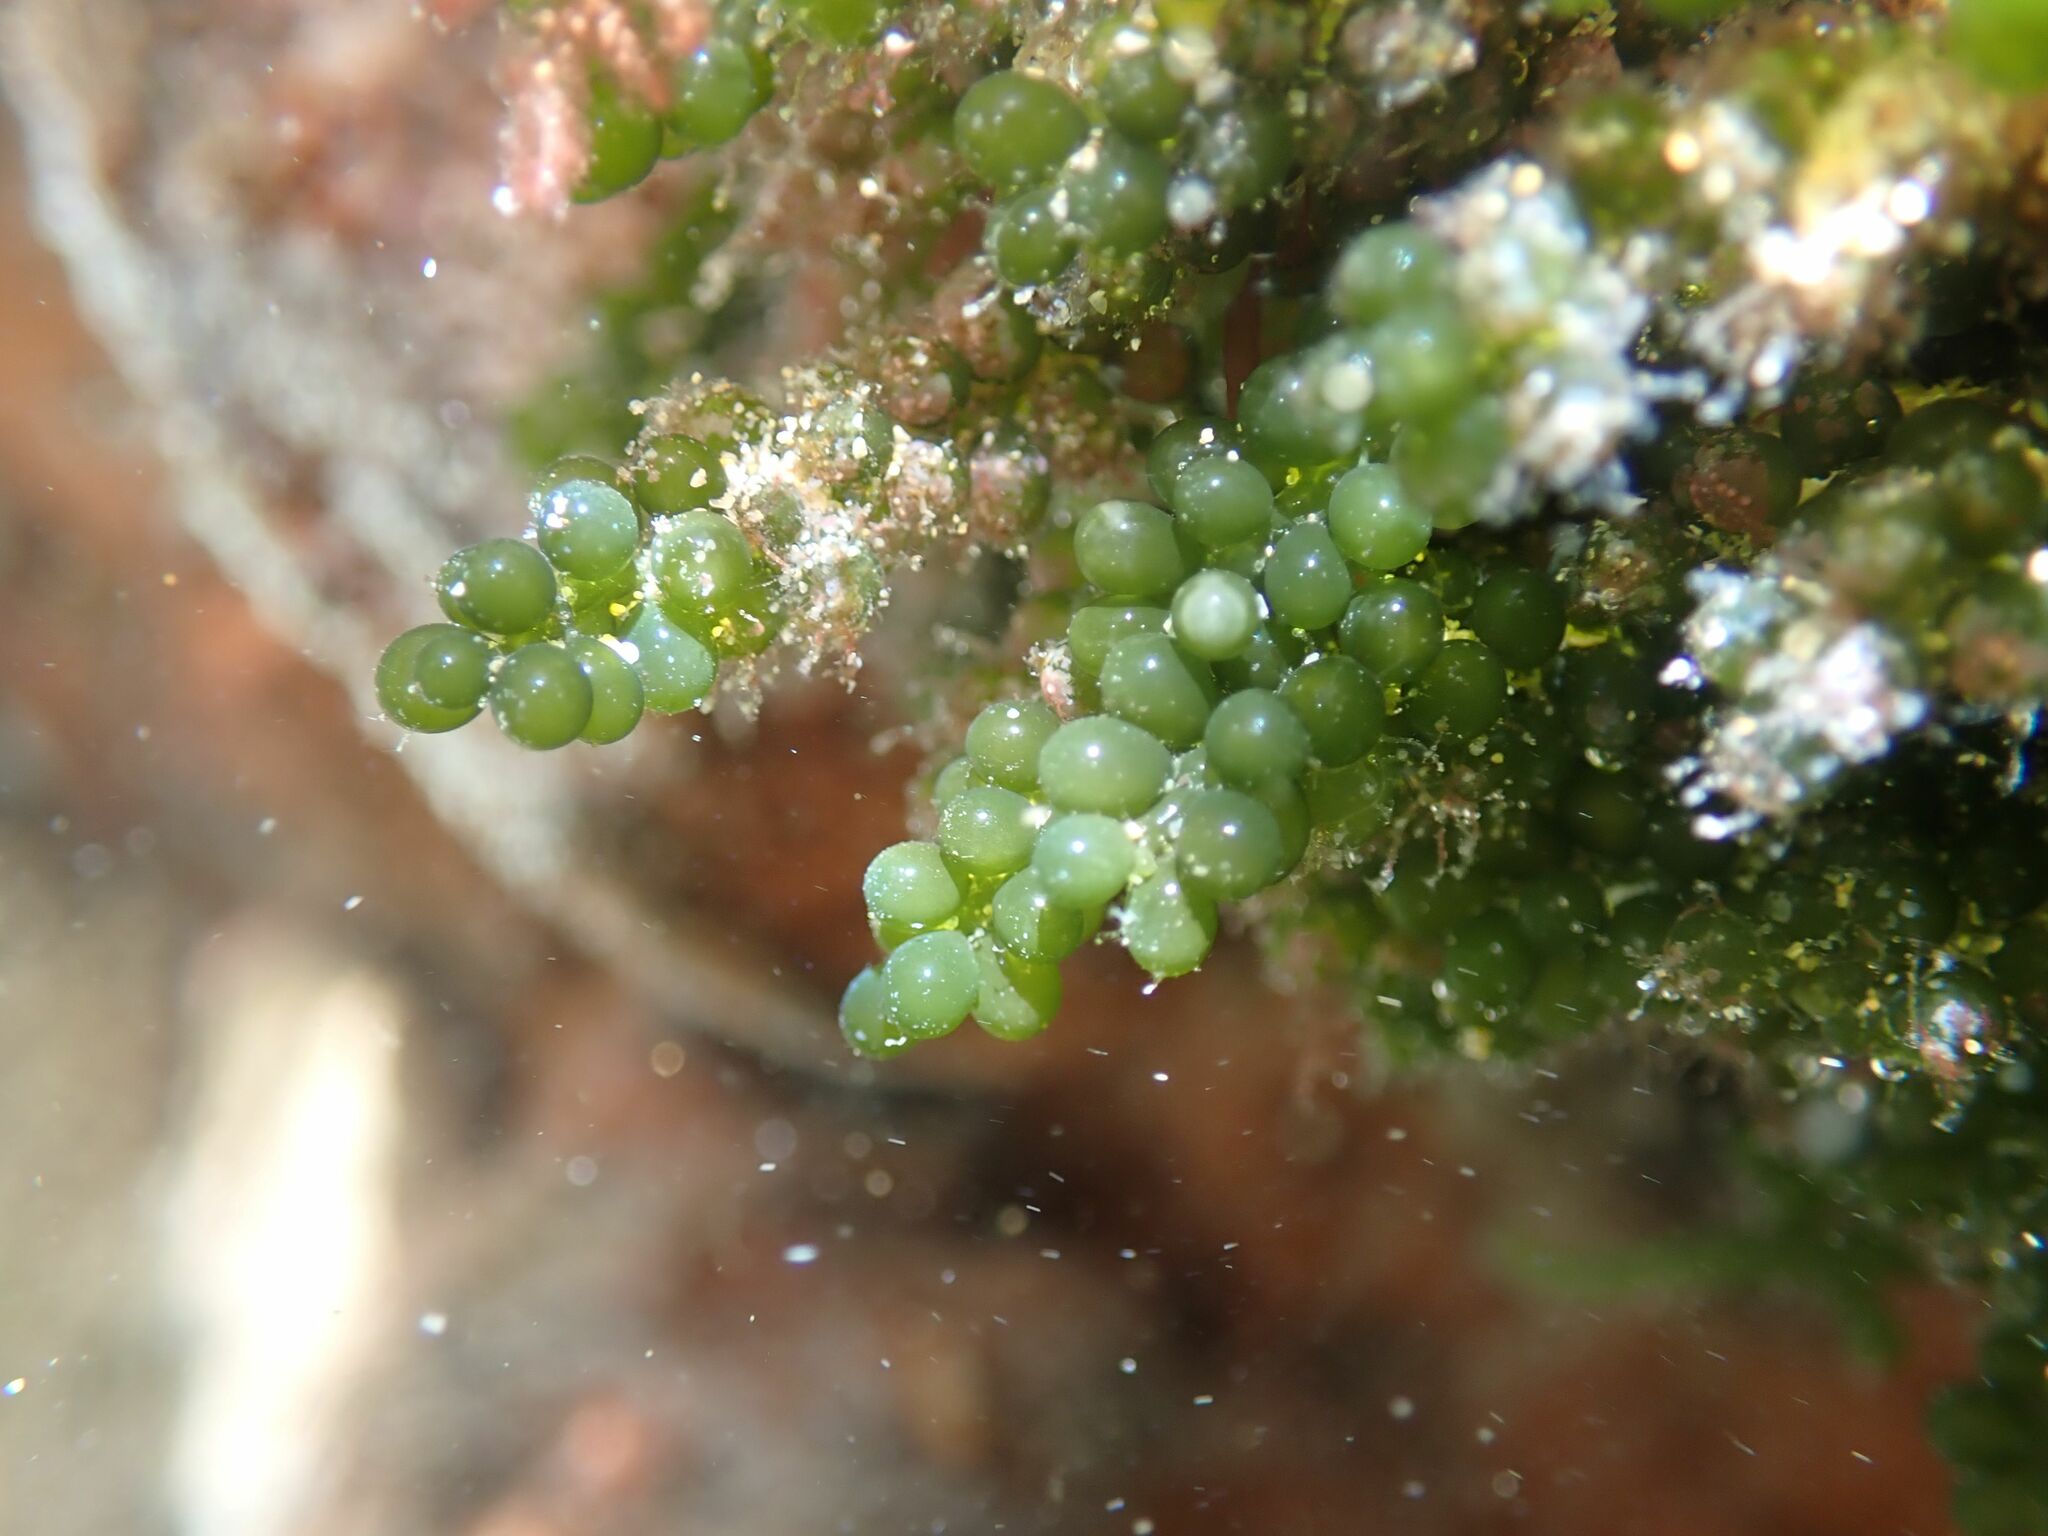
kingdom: Plantae
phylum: Chlorophyta
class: Ulvophyceae
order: Bryopsidales
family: Caulerpaceae
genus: Caulerpa
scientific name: Caulerpa geminata
